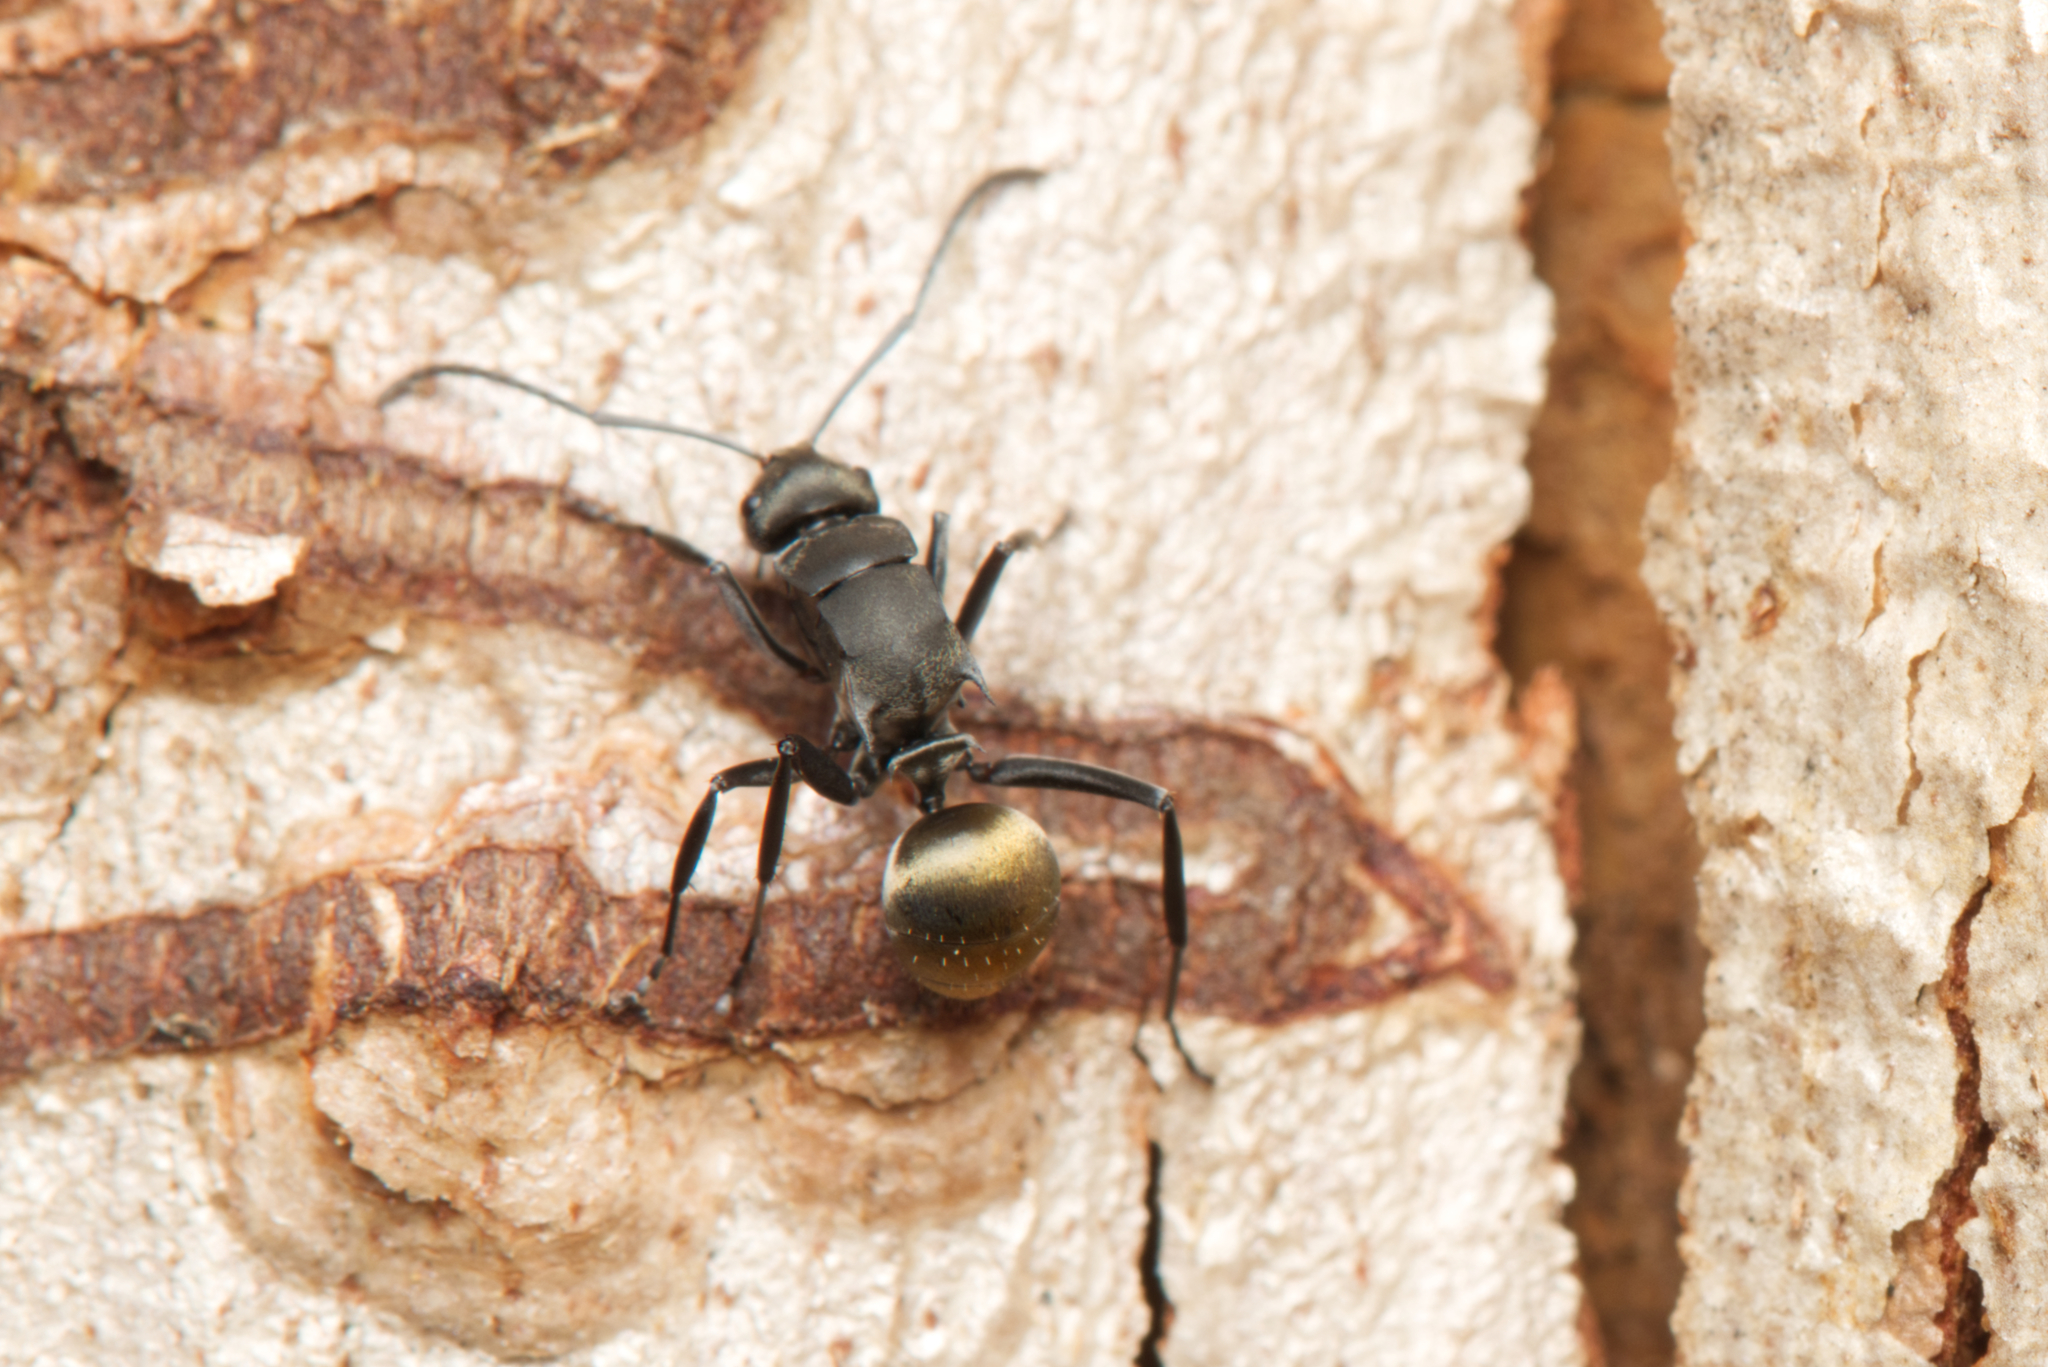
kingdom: Animalia
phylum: Arthropoda
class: Insecta
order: Hymenoptera
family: Formicidae
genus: Polyrhachis
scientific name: Polyrhachis tubifera
